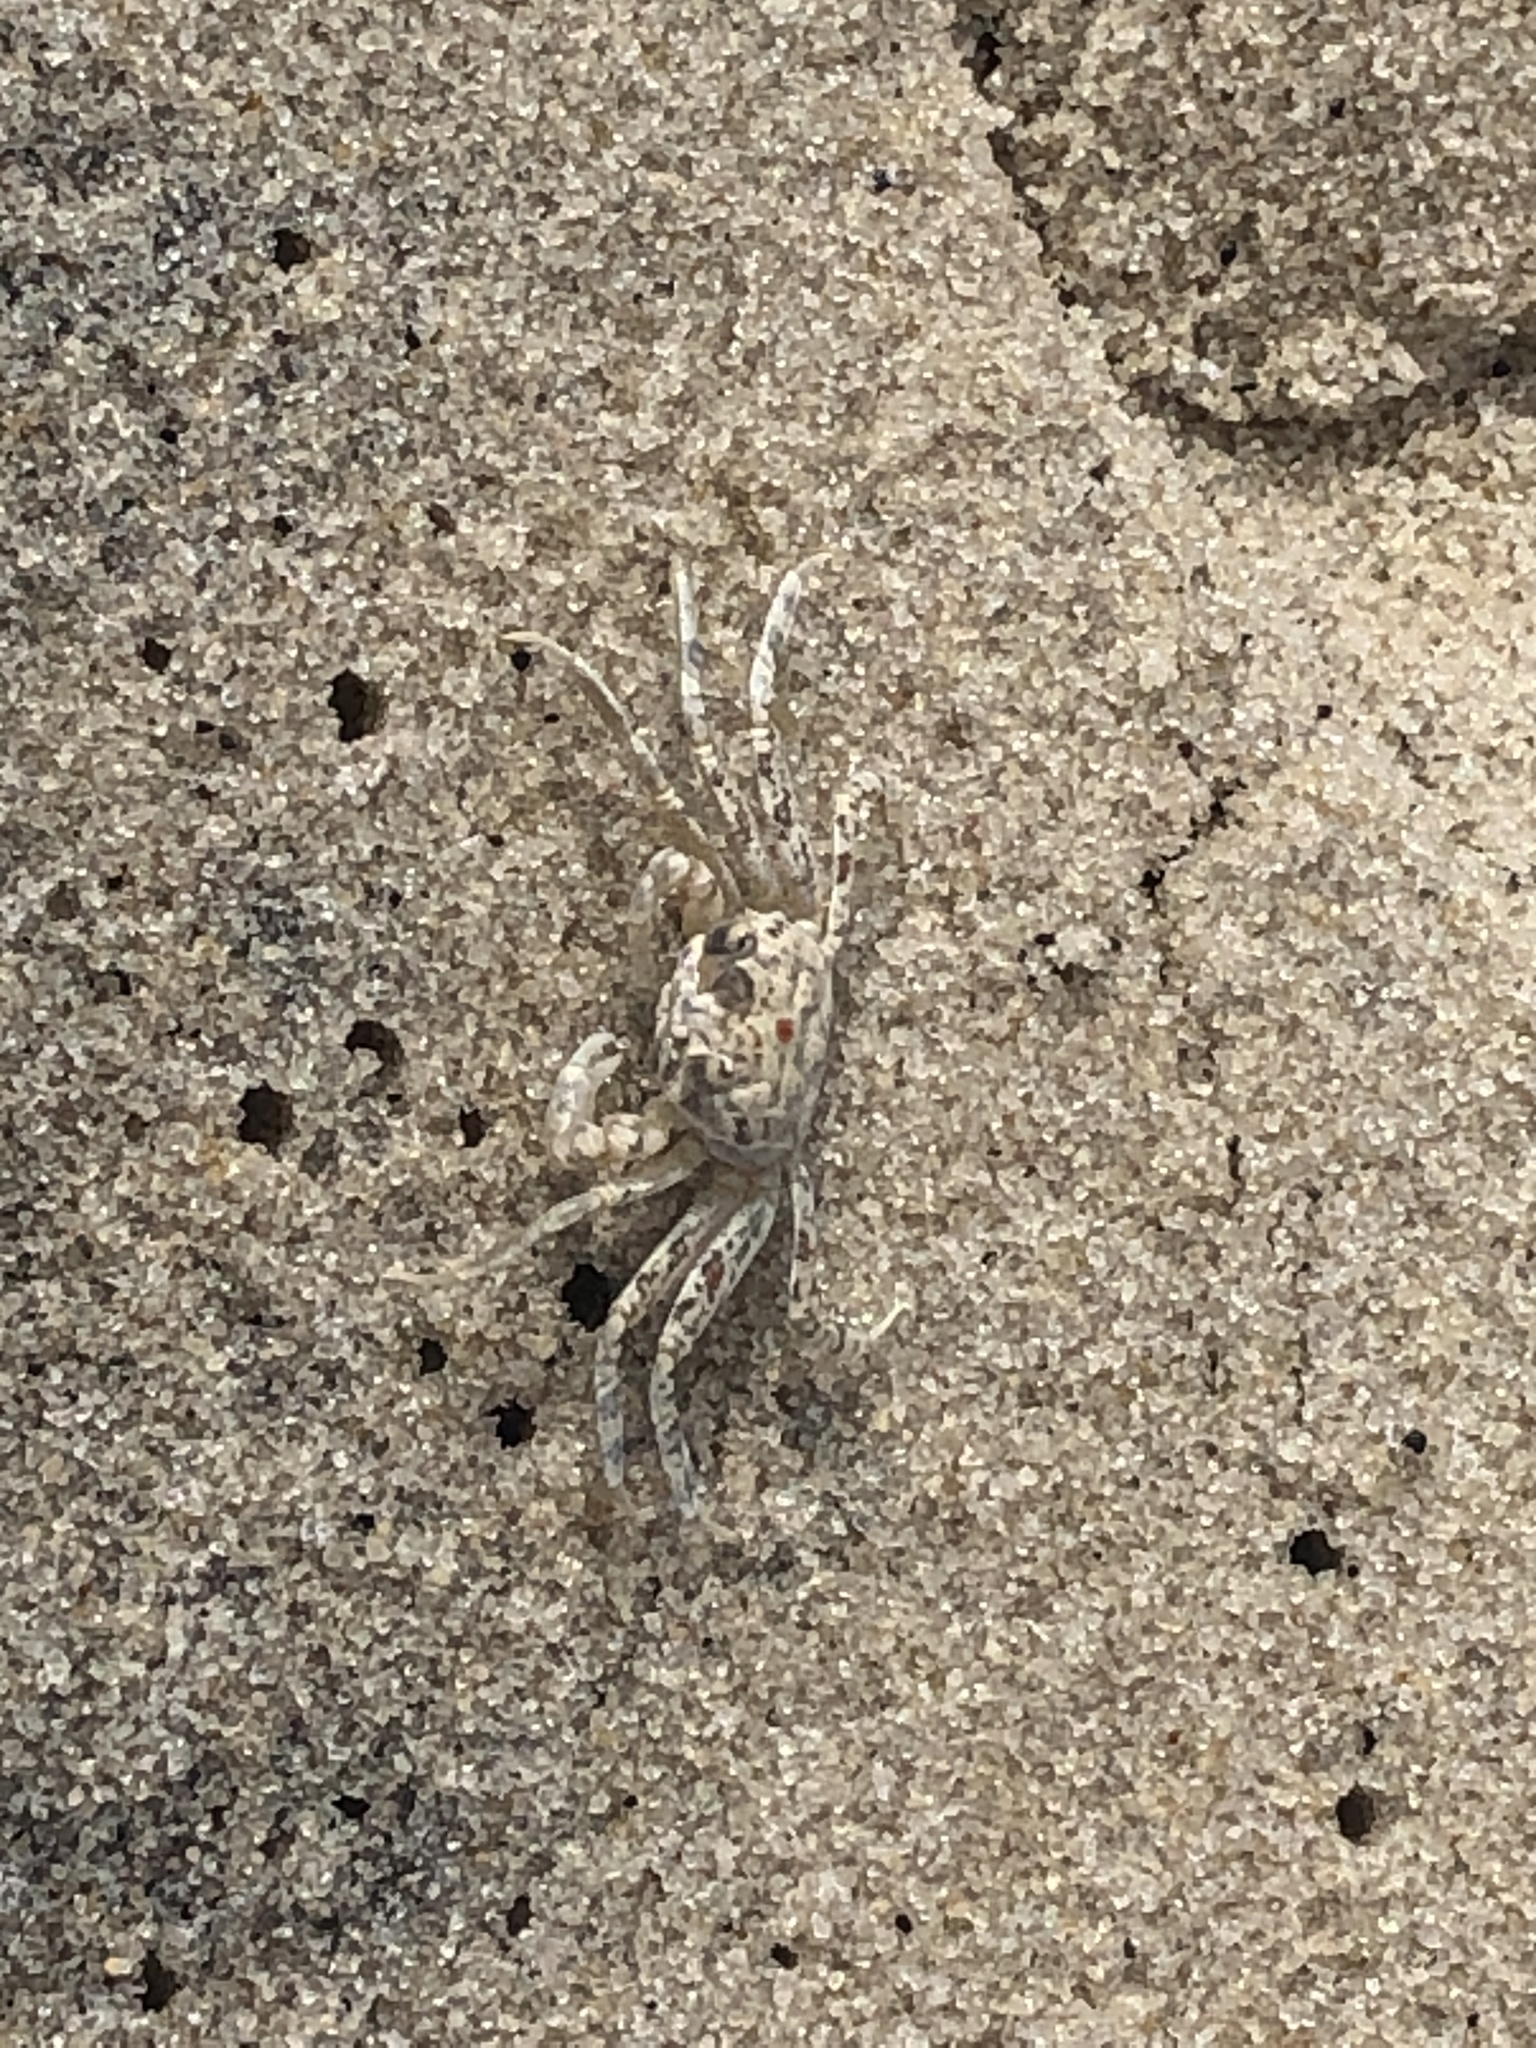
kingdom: Animalia
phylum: Arthropoda
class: Malacostraca
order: Decapoda
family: Ocypodidae
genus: Ocypode
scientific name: Ocypode quadrata
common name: Ghost crab
